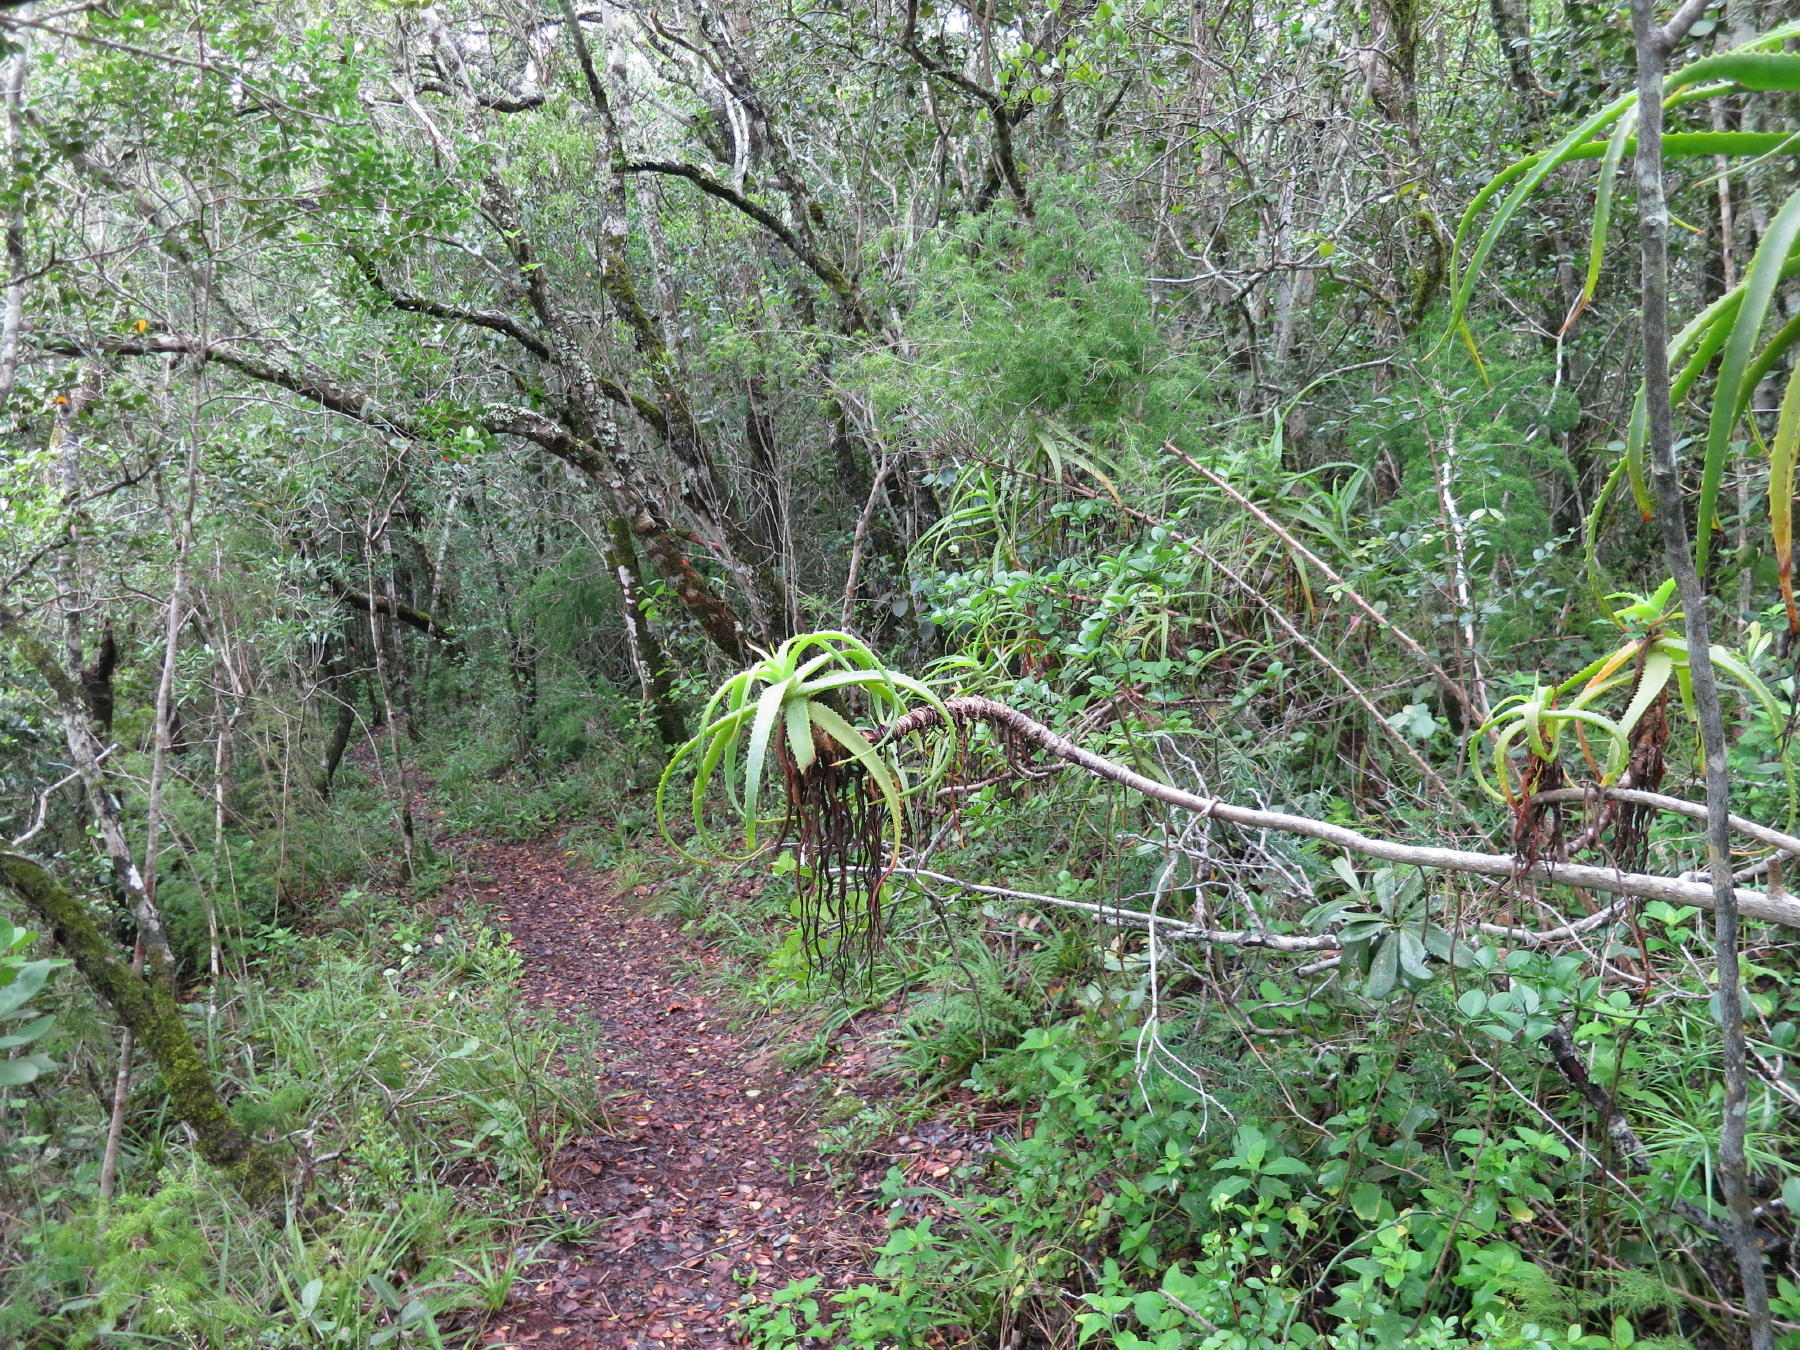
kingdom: Plantae
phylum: Tracheophyta
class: Liliopsida
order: Asparagales
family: Asphodelaceae
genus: Aloe
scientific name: Aloe arborescens
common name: Candelabra aloe
